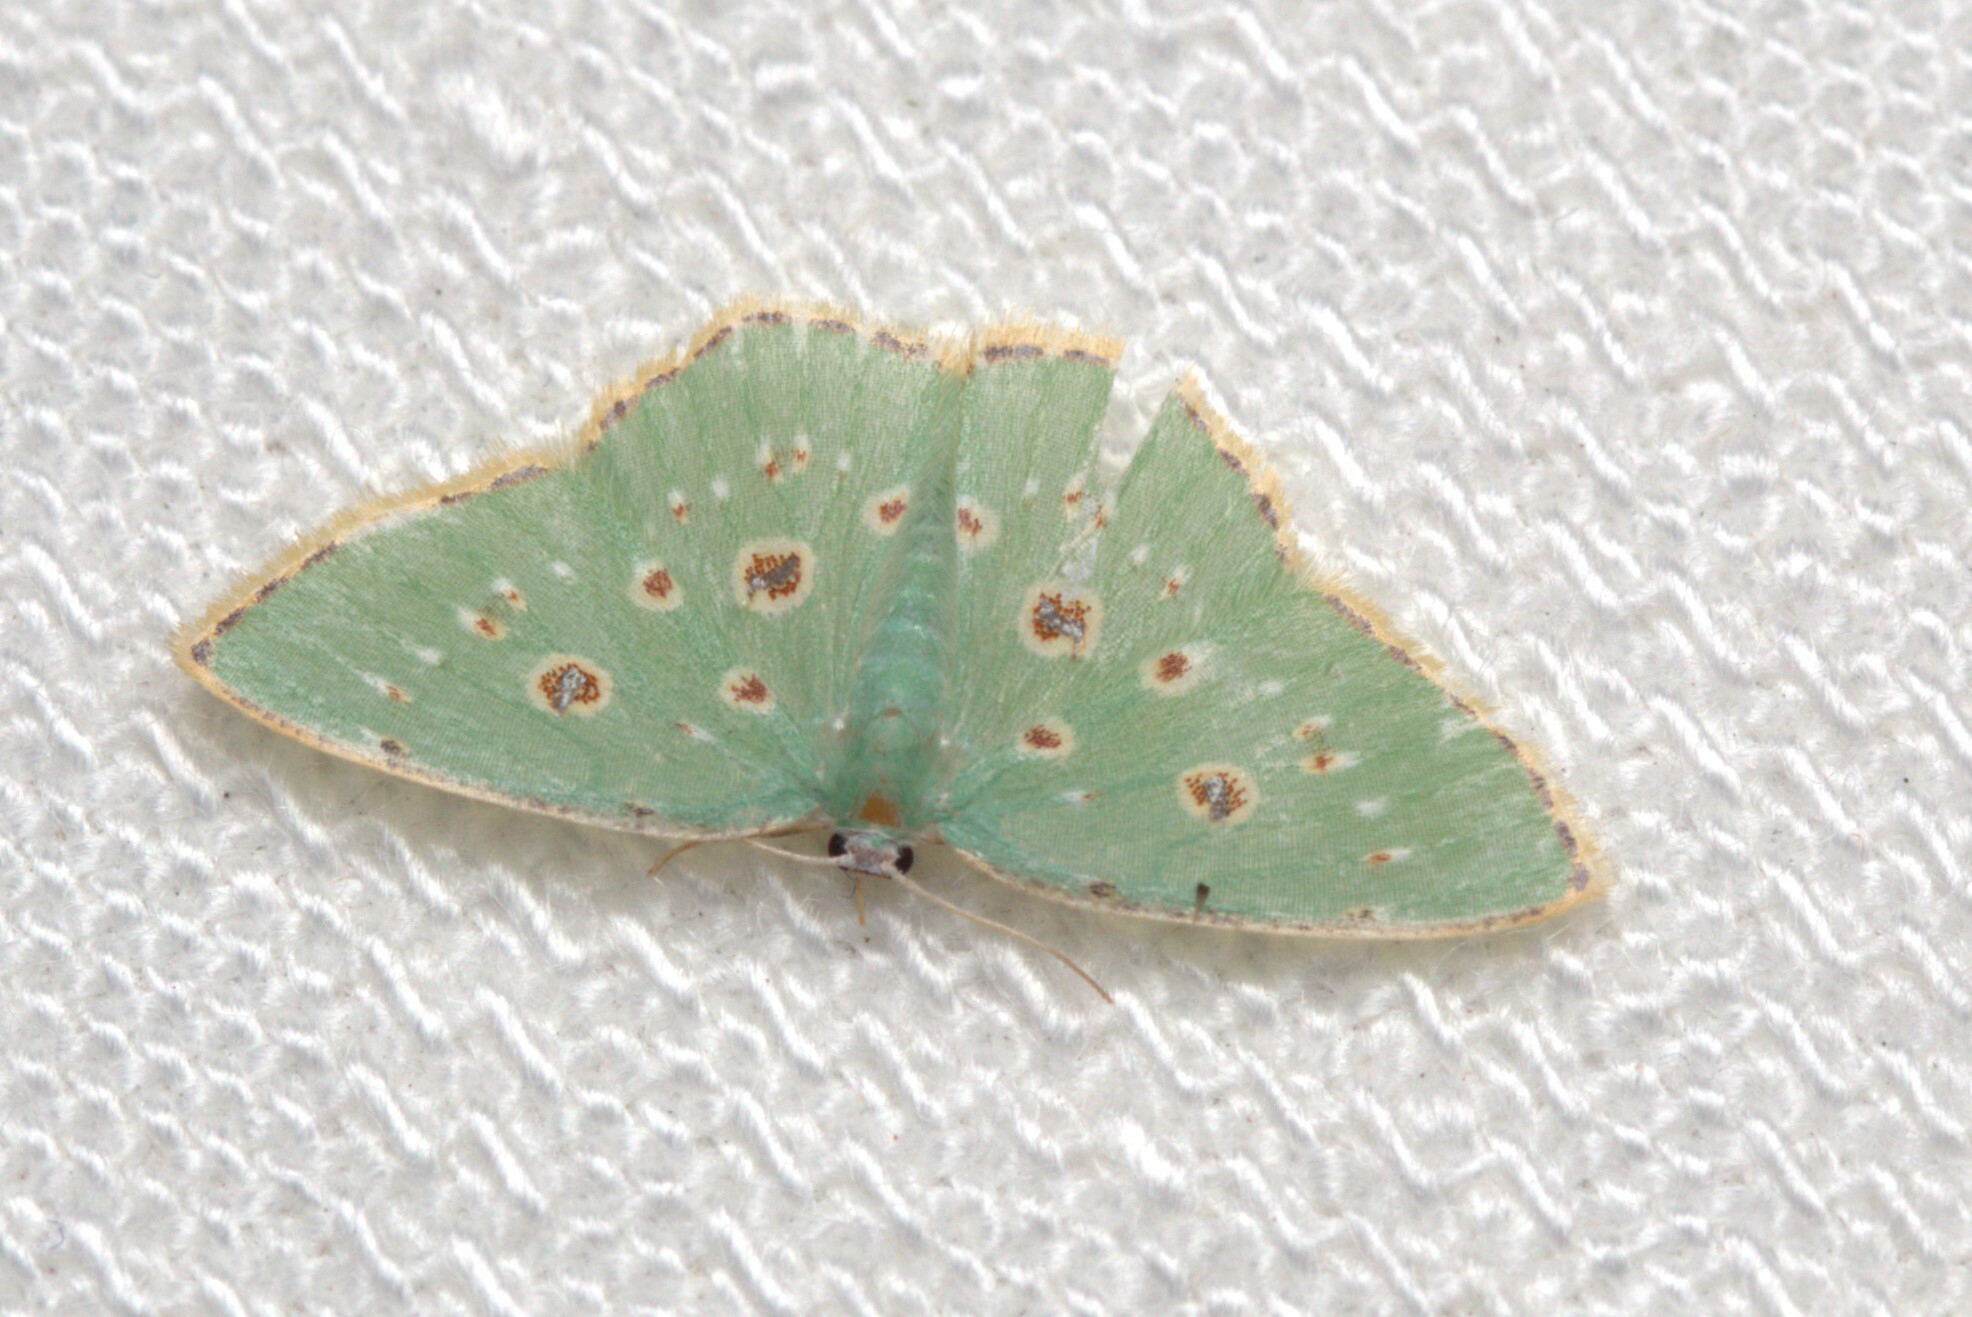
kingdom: Animalia
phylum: Arthropoda
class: Insecta
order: Lepidoptera
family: Geometridae
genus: Comostola
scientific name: Comostola laesaria
